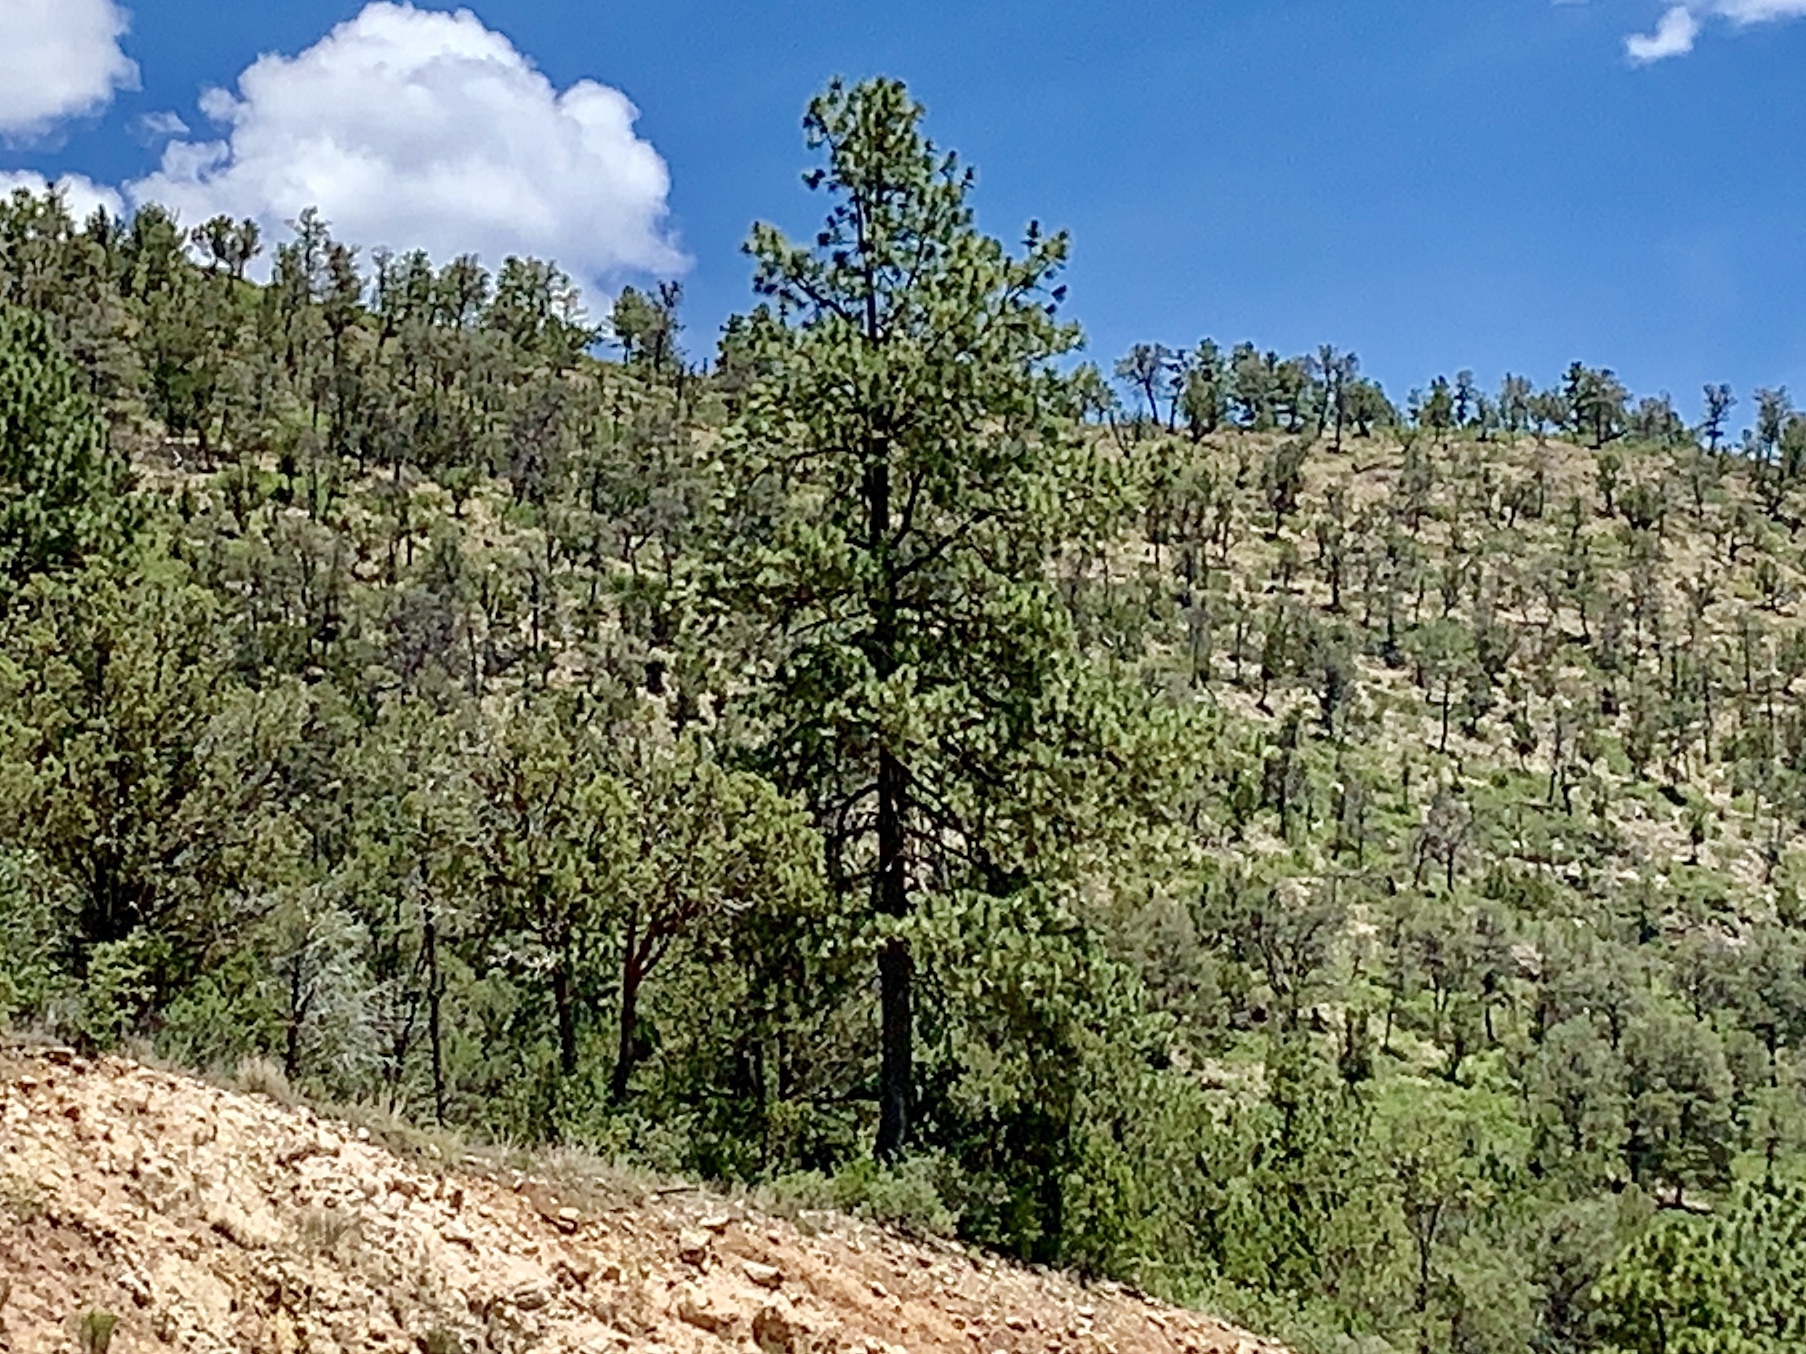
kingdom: Plantae
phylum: Tracheophyta
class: Pinopsida
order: Pinales
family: Pinaceae
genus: Pinus
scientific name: Pinus ponderosa
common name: Western yellow-pine
